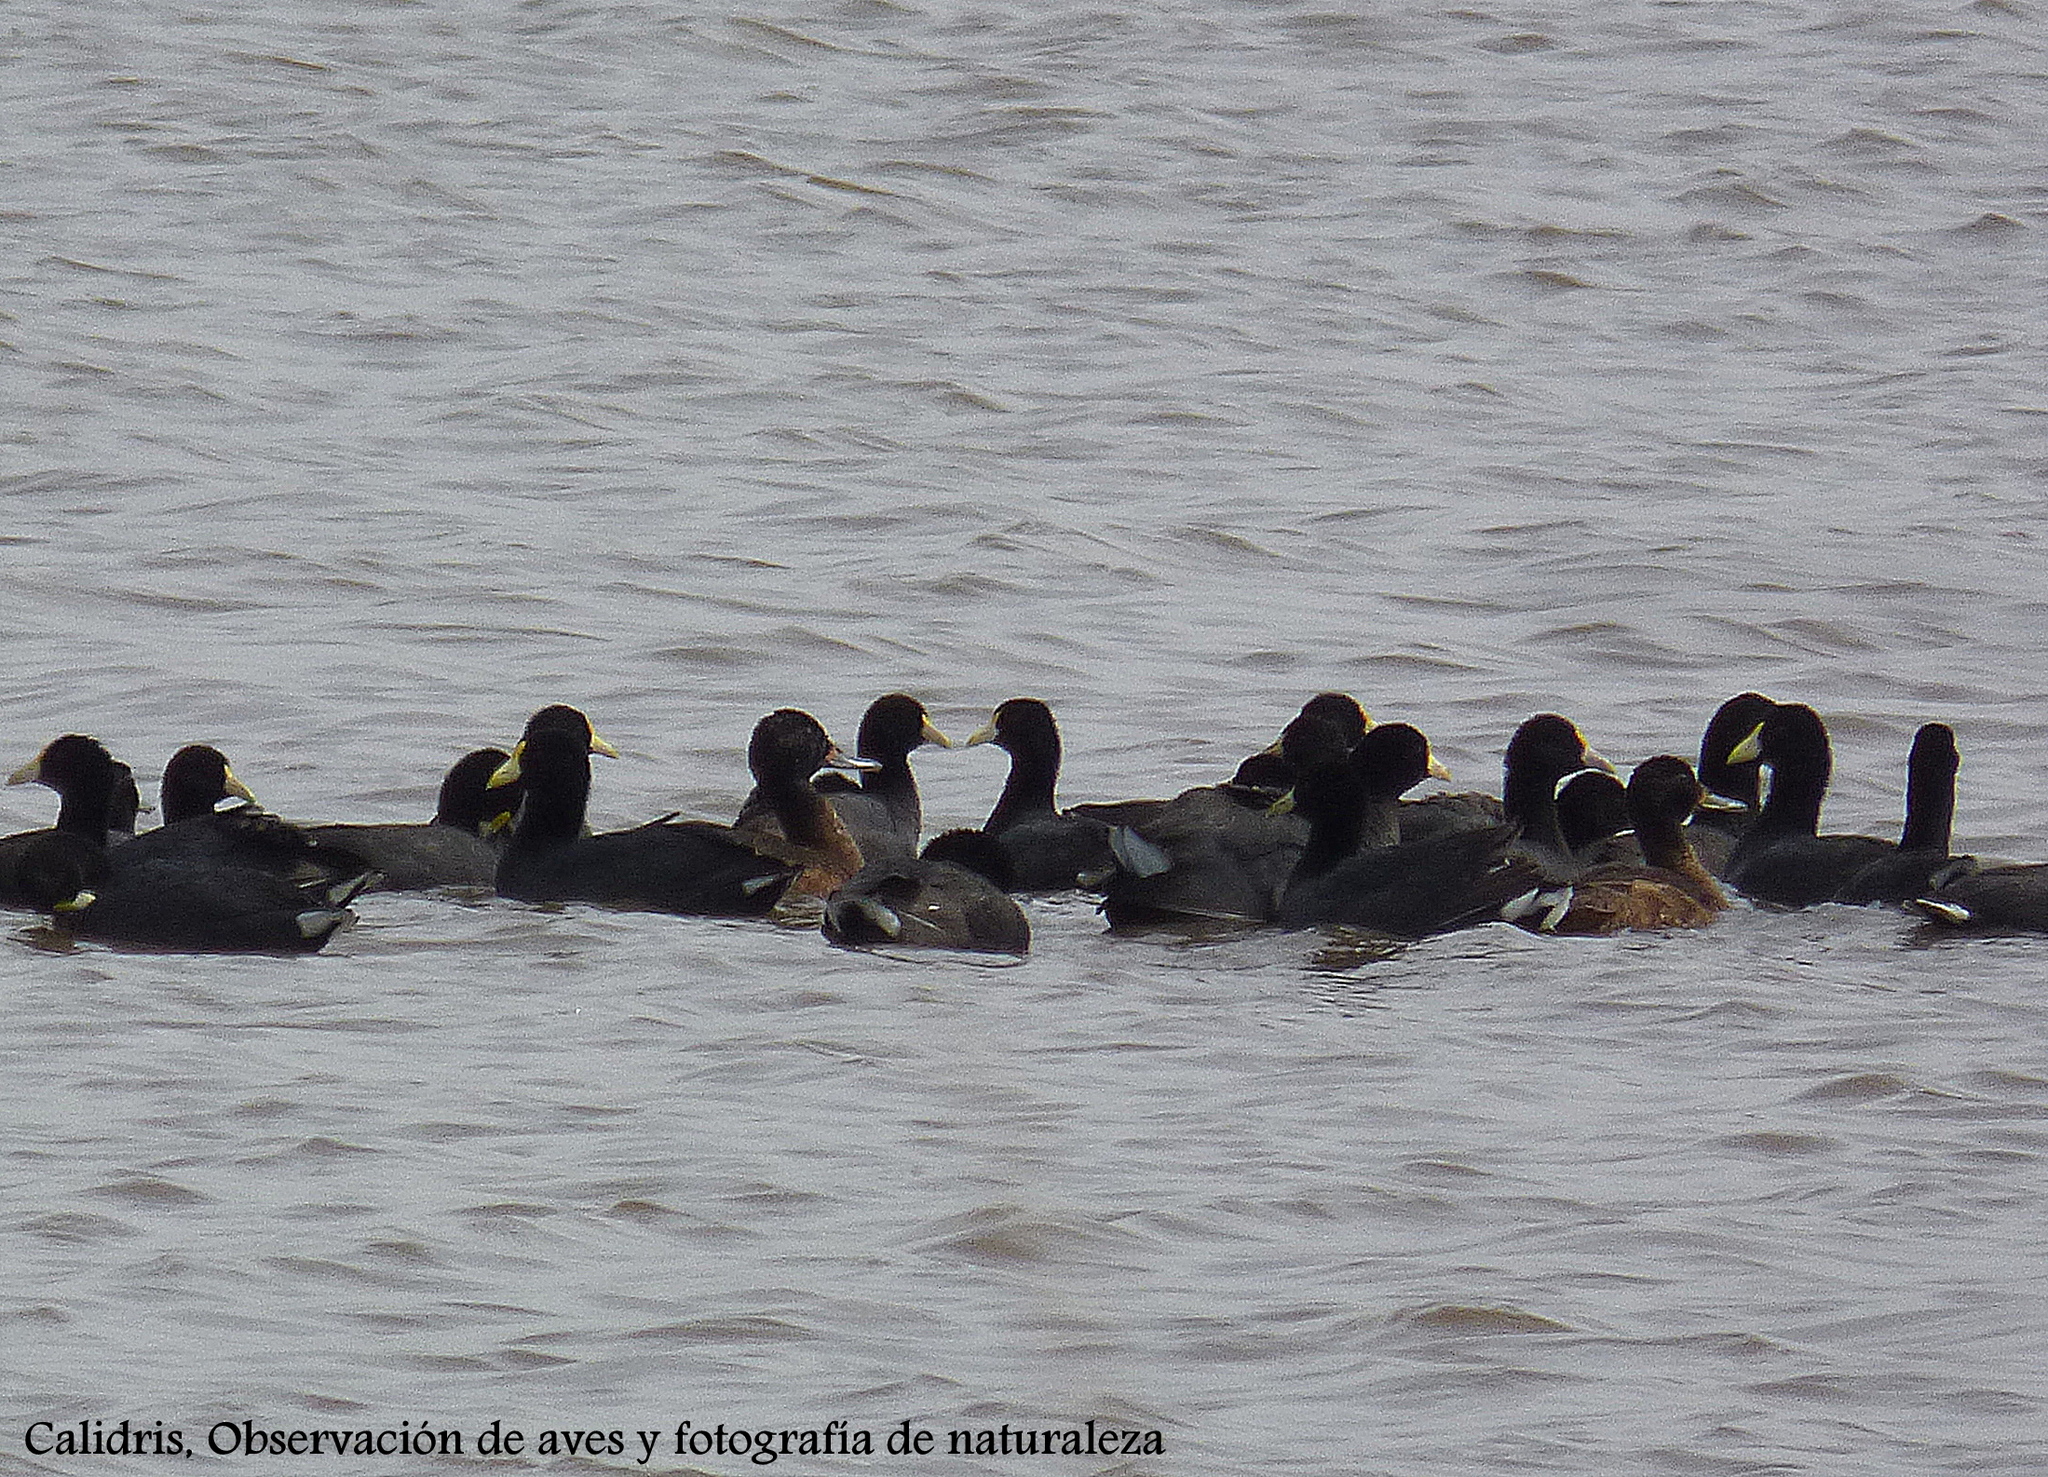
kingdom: Animalia
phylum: Chordata
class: Aves
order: Anseriformes
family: Anatidae
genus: Heteronetta
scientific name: Heteronetta atricapilla
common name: Black-headed duck
